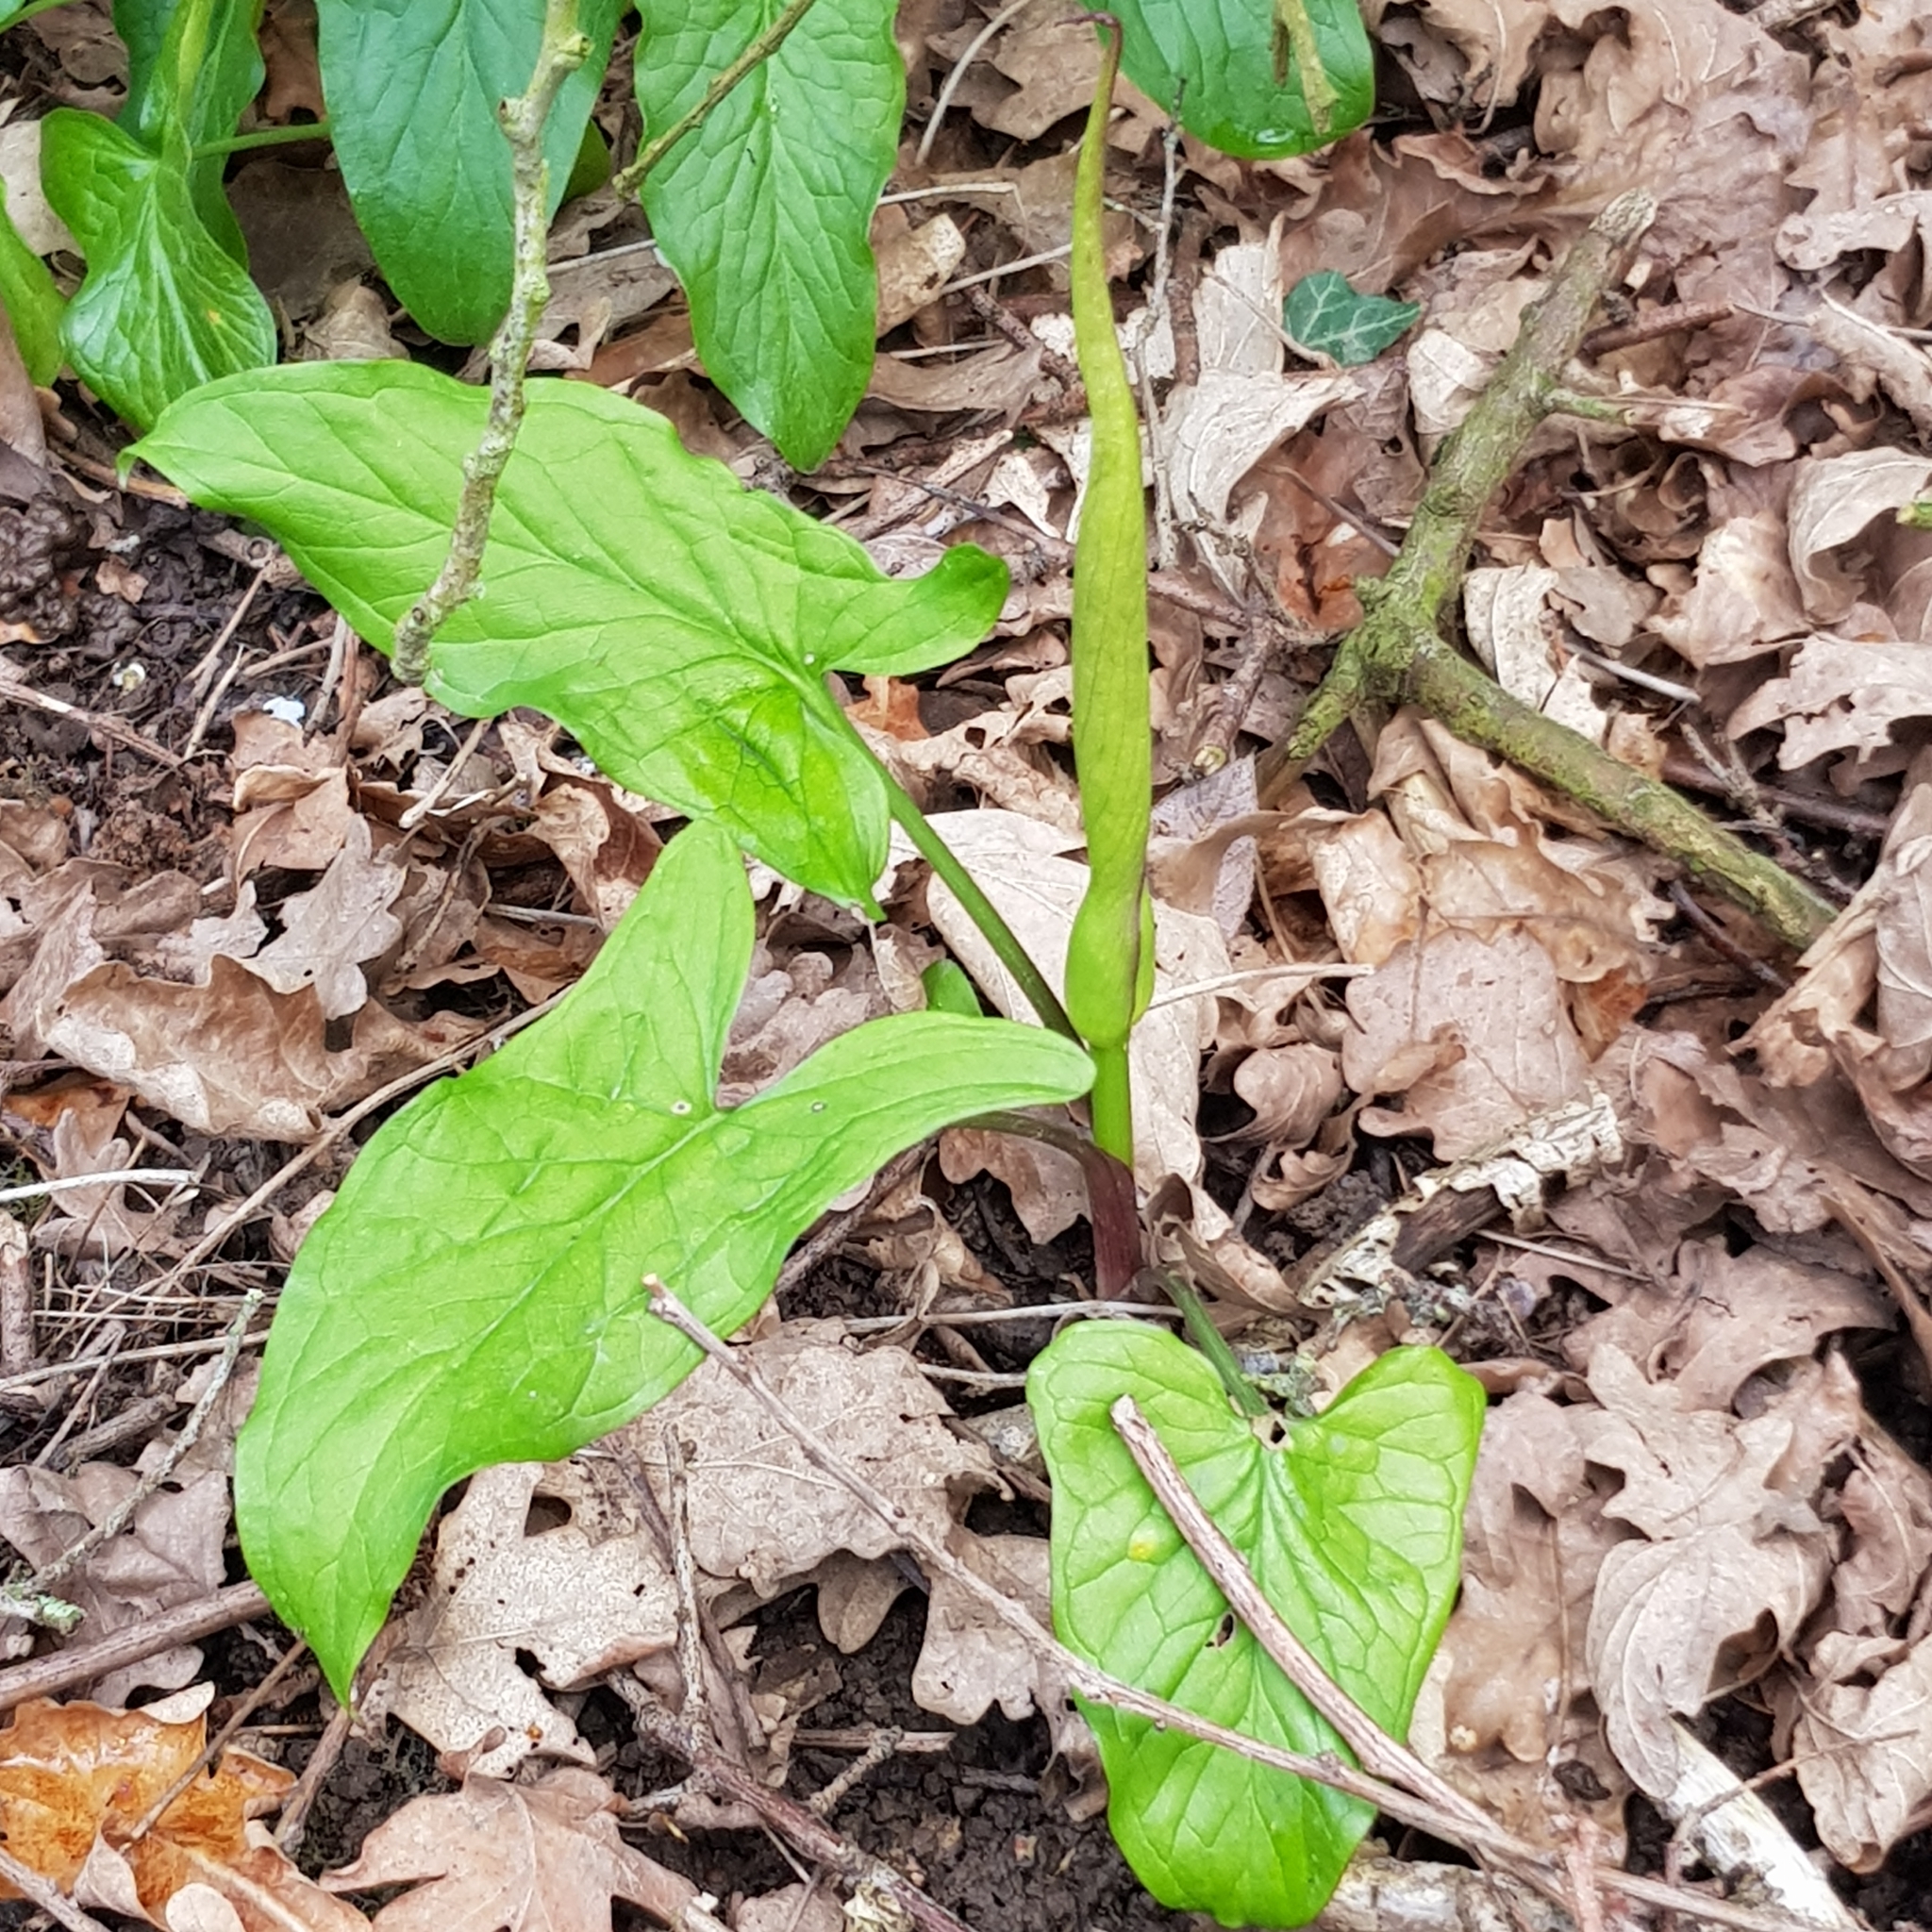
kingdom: Plantae
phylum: Tracheophyta
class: Liliopsida
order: Alismatales
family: Araceae
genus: Arum
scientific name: Arum maculatum
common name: Lords-and-ladies
